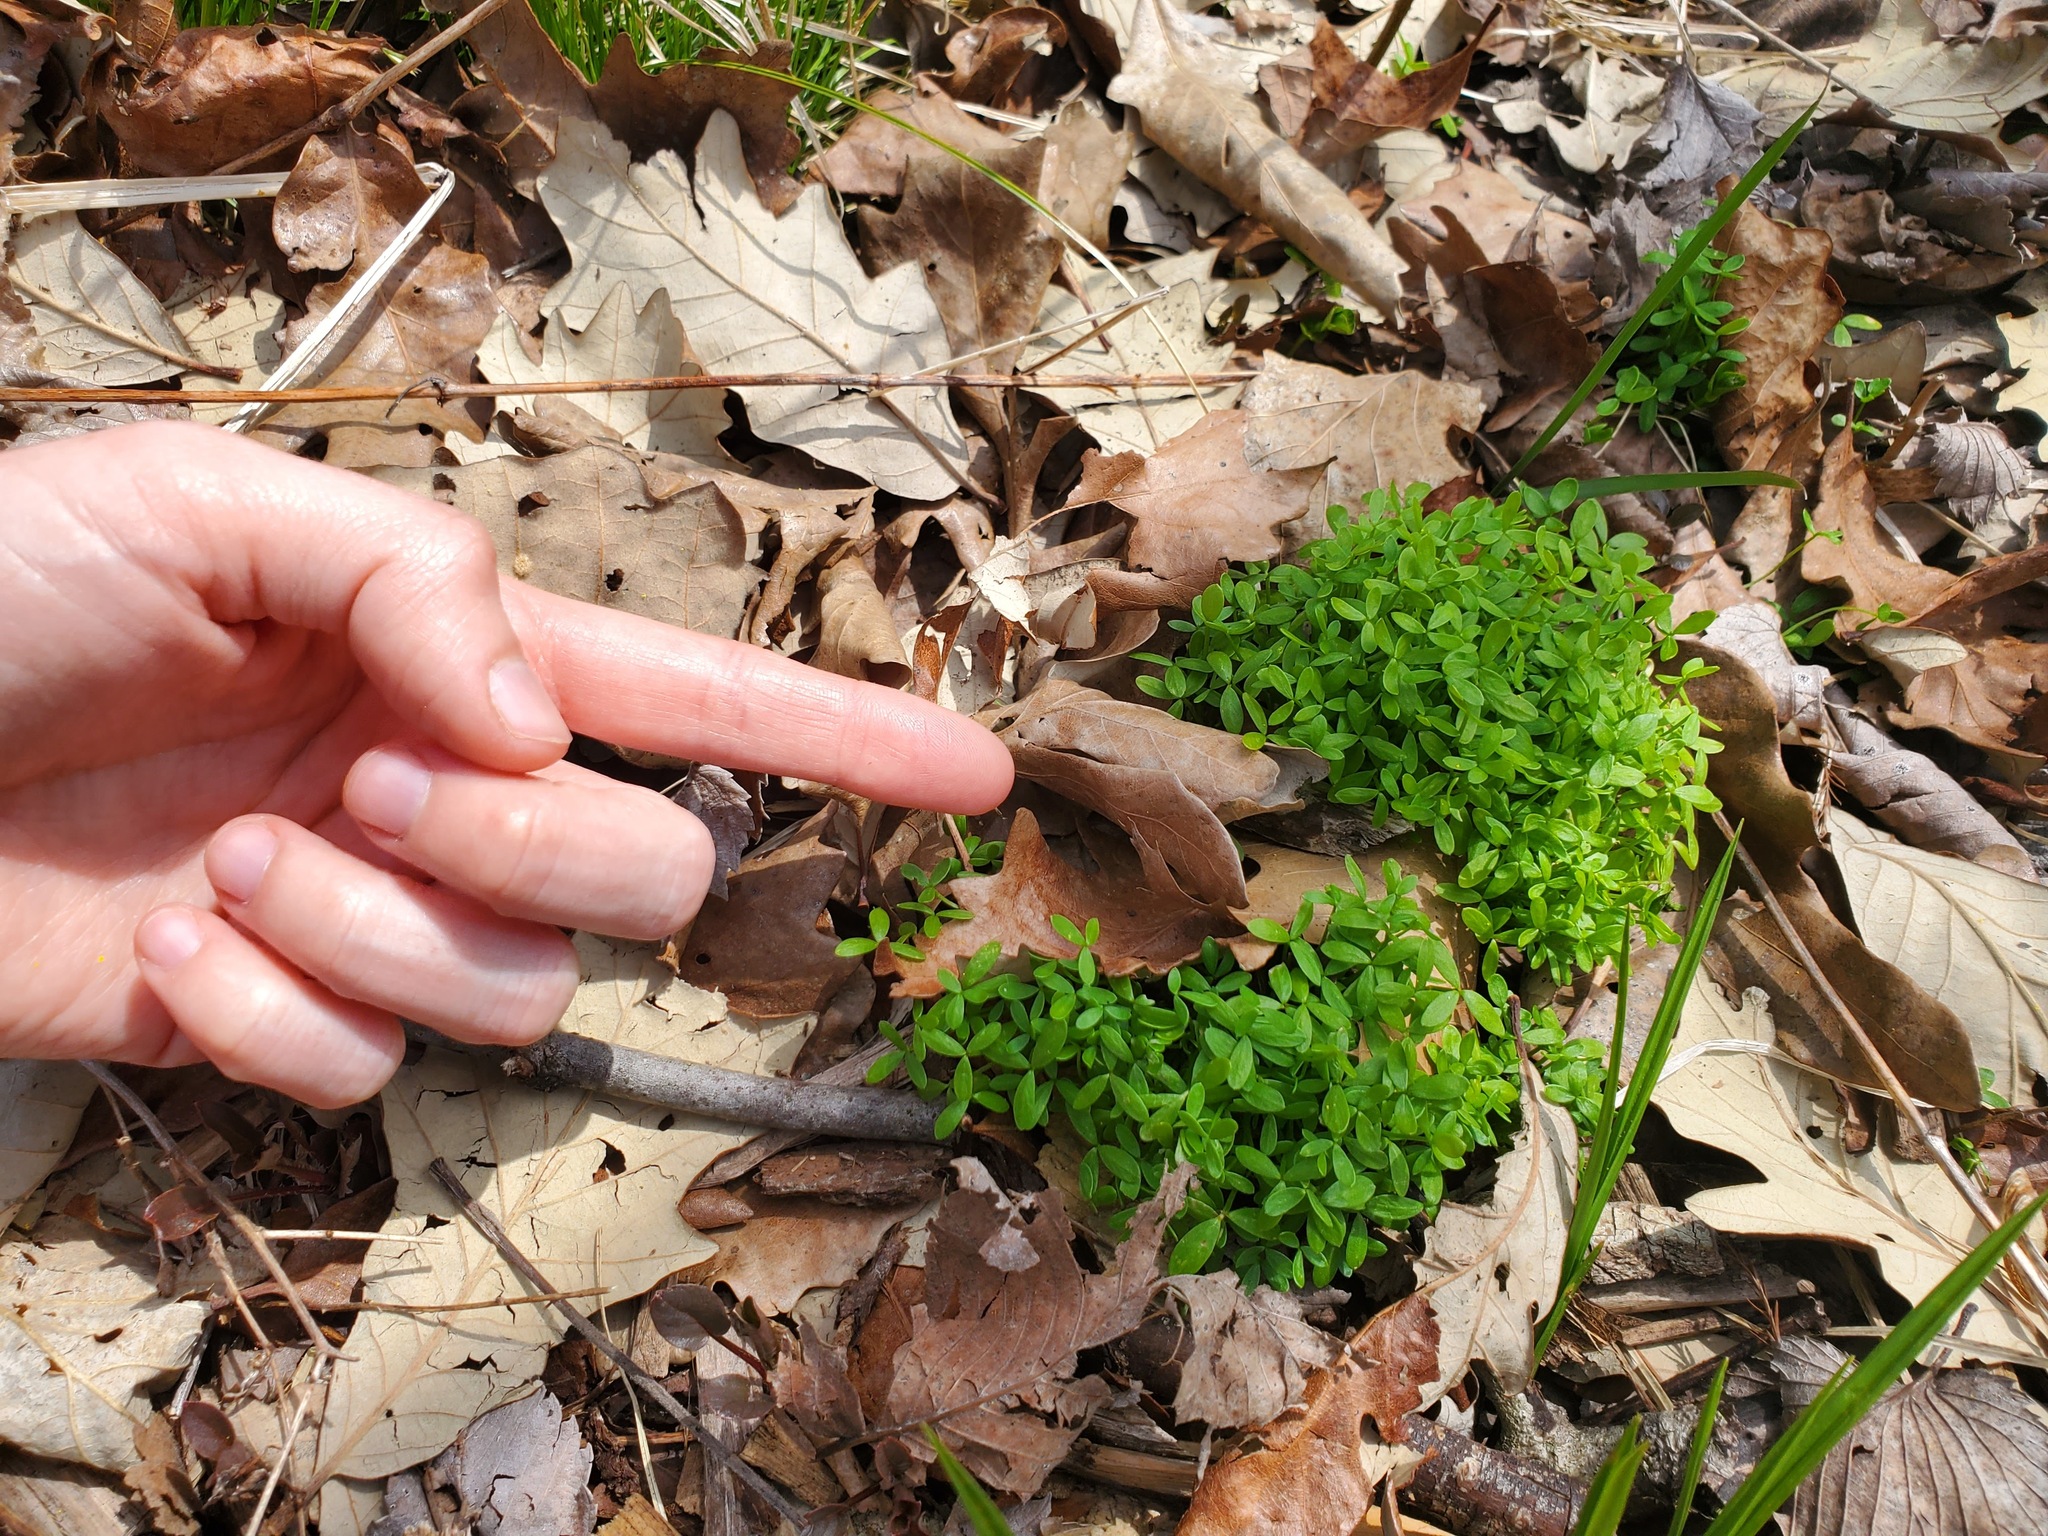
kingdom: Plantae
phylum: Tracheophyta
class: Magnoliopsida
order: Brassicales
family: Limnanthaceae
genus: Floerkea
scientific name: Floerkea proserpinacoides
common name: False mermaid
